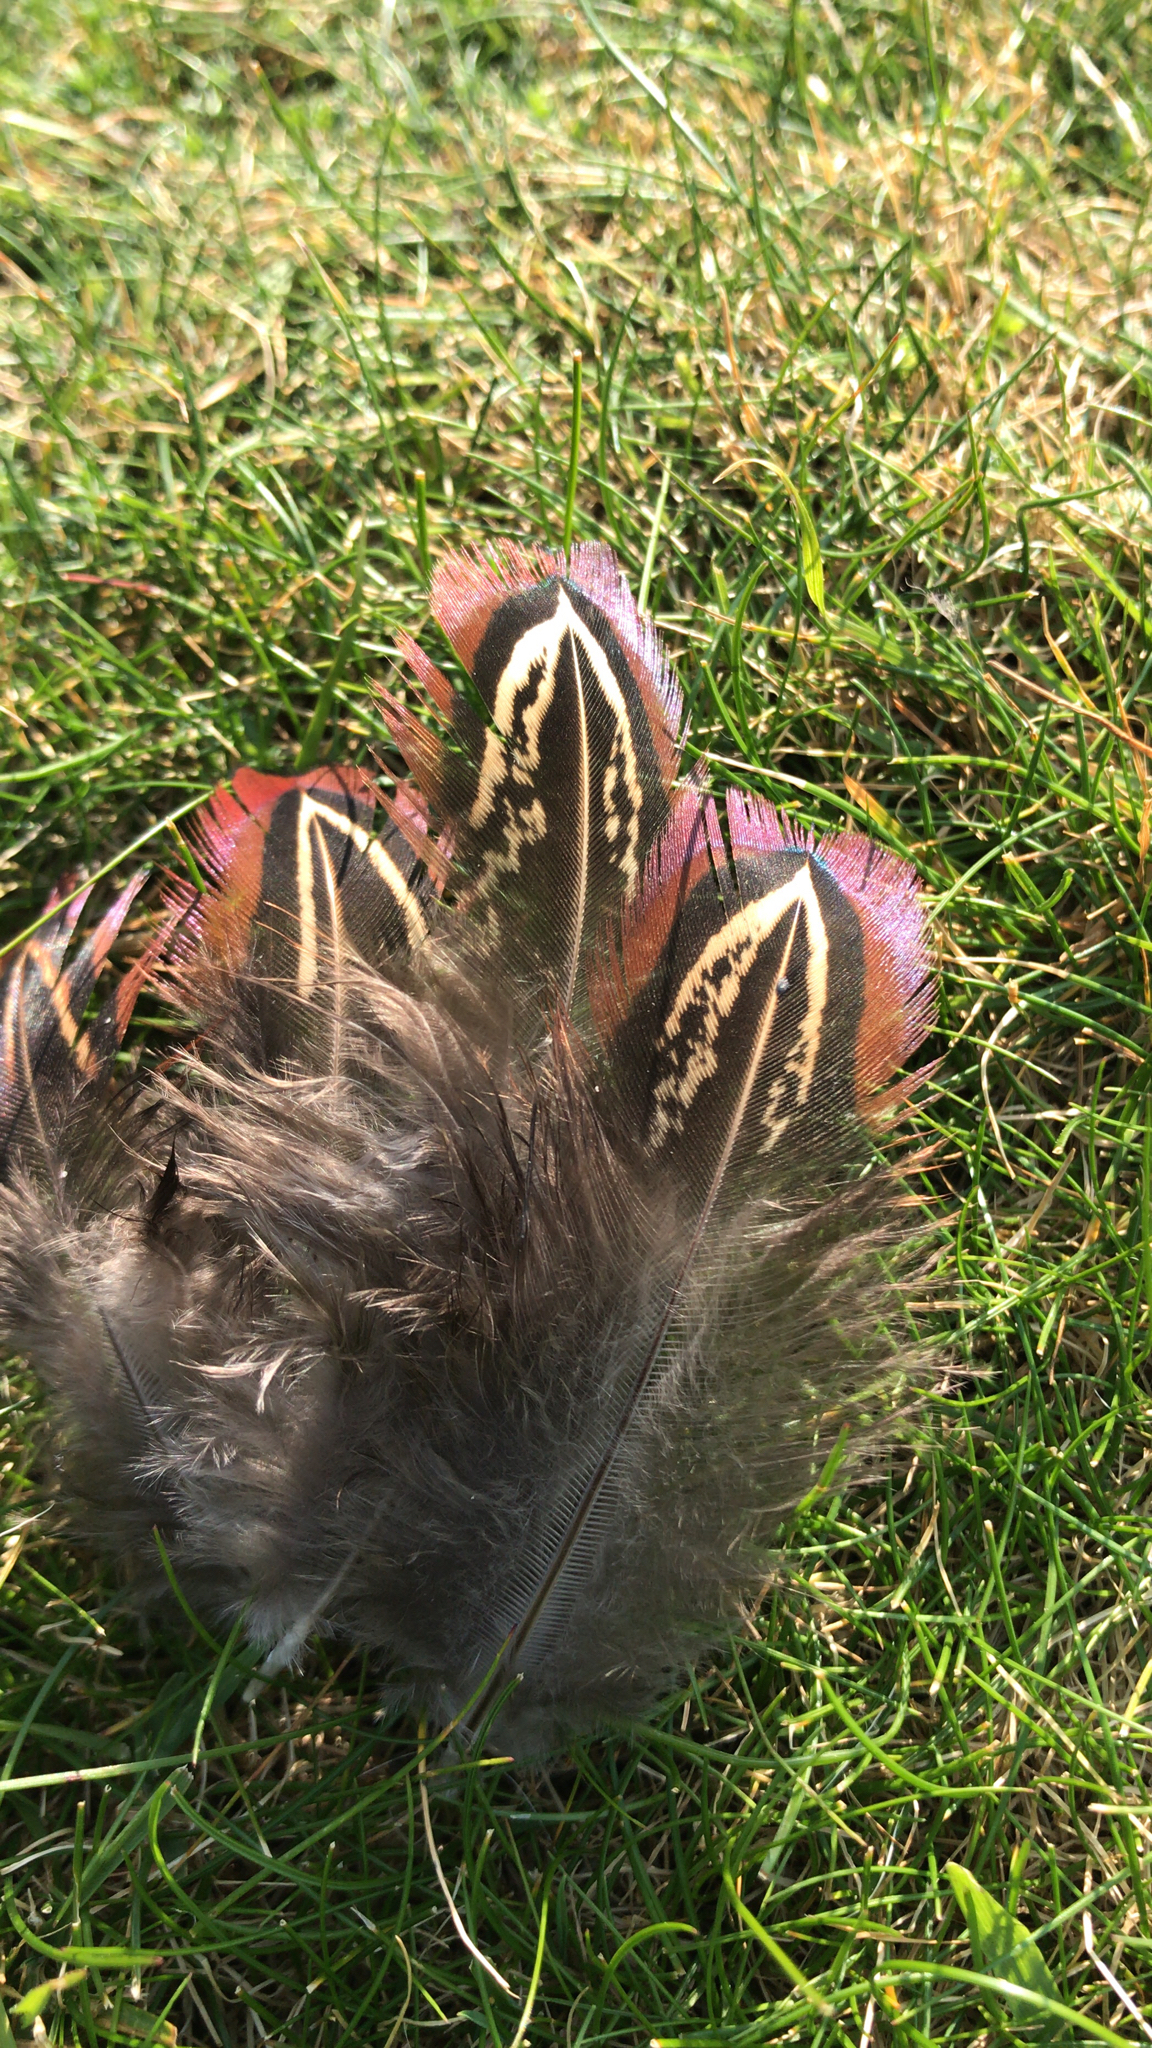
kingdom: Animalia
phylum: Chordata
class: Aves
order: Galliformes
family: Phasianidae
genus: Phasianus
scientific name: Phasianus colchicus
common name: Common pheasant
